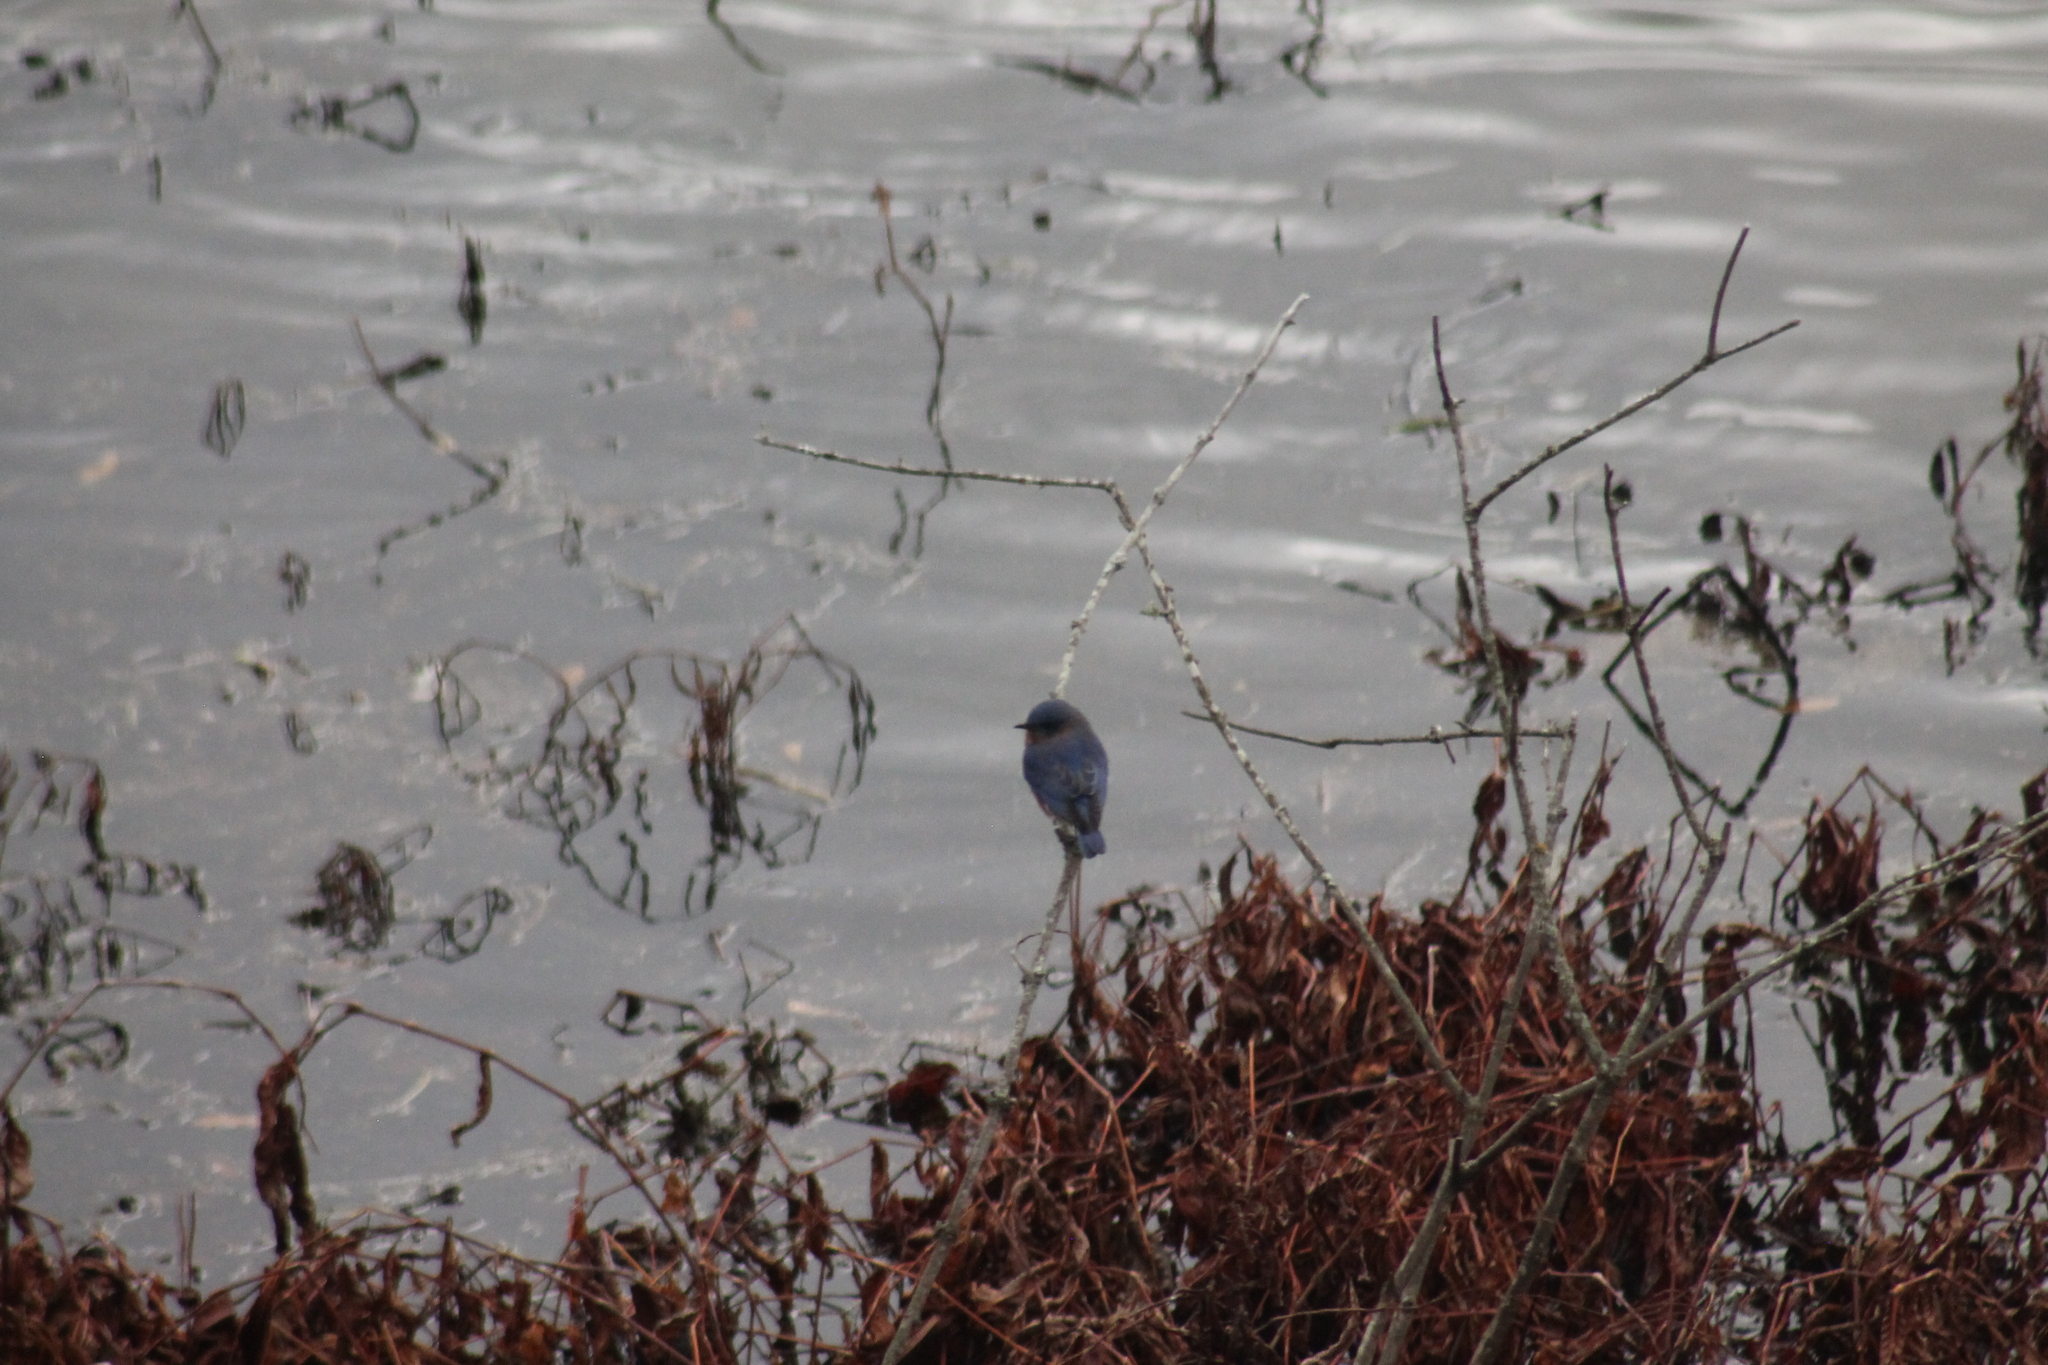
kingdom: Animalia
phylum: Chordata
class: Aves
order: Passeriformes
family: Turdidae
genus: Sialia
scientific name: Sialia sialis
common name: Eastern bluebird
